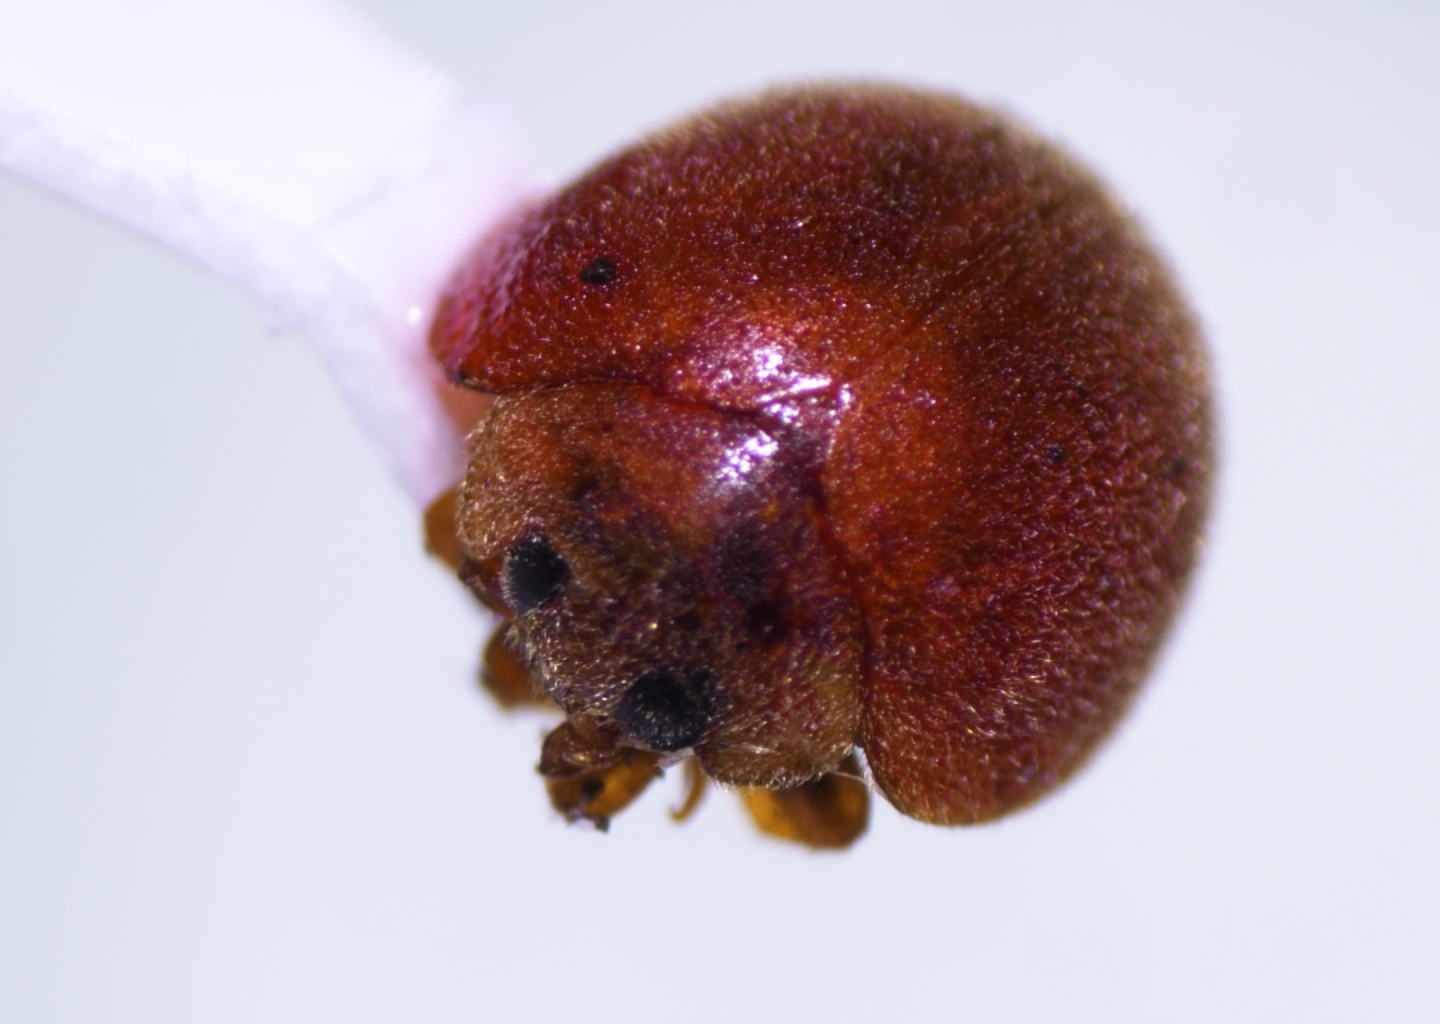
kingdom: Animalia
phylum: Arthropoda
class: Insecta
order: Coleoptera
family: Coccinellidae
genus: Novius
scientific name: Novius pumilus
